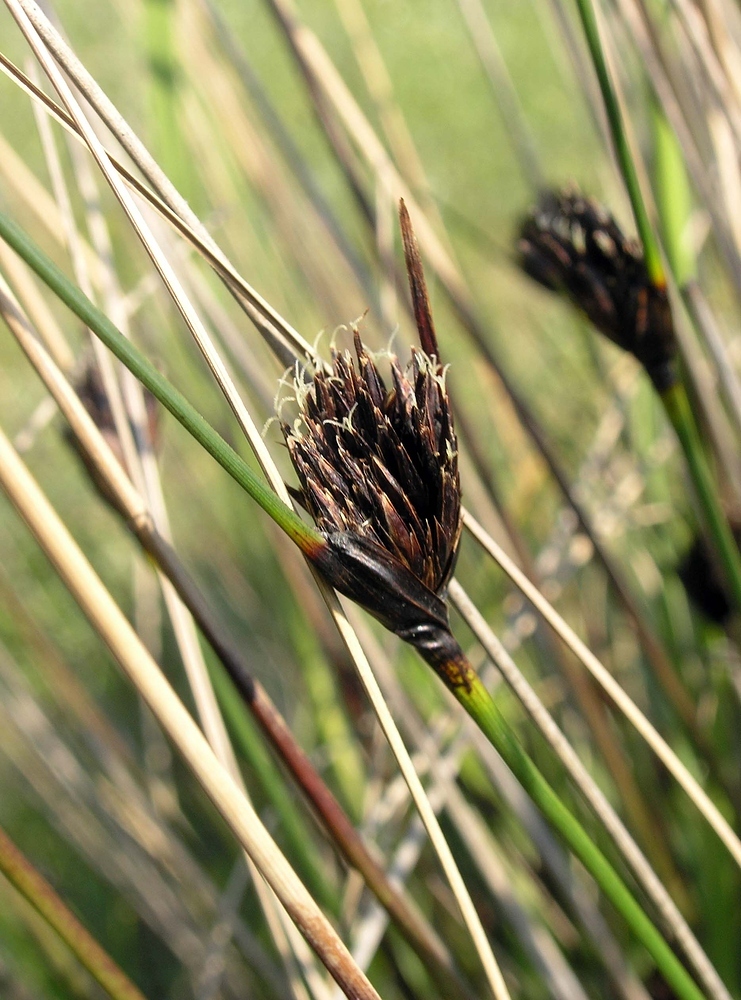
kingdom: Plantae
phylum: Tracheophyta
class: Liliopsida
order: Poales
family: Cyperaceae
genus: Schoenus
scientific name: Schoenus nigricans
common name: Black bog-rush
